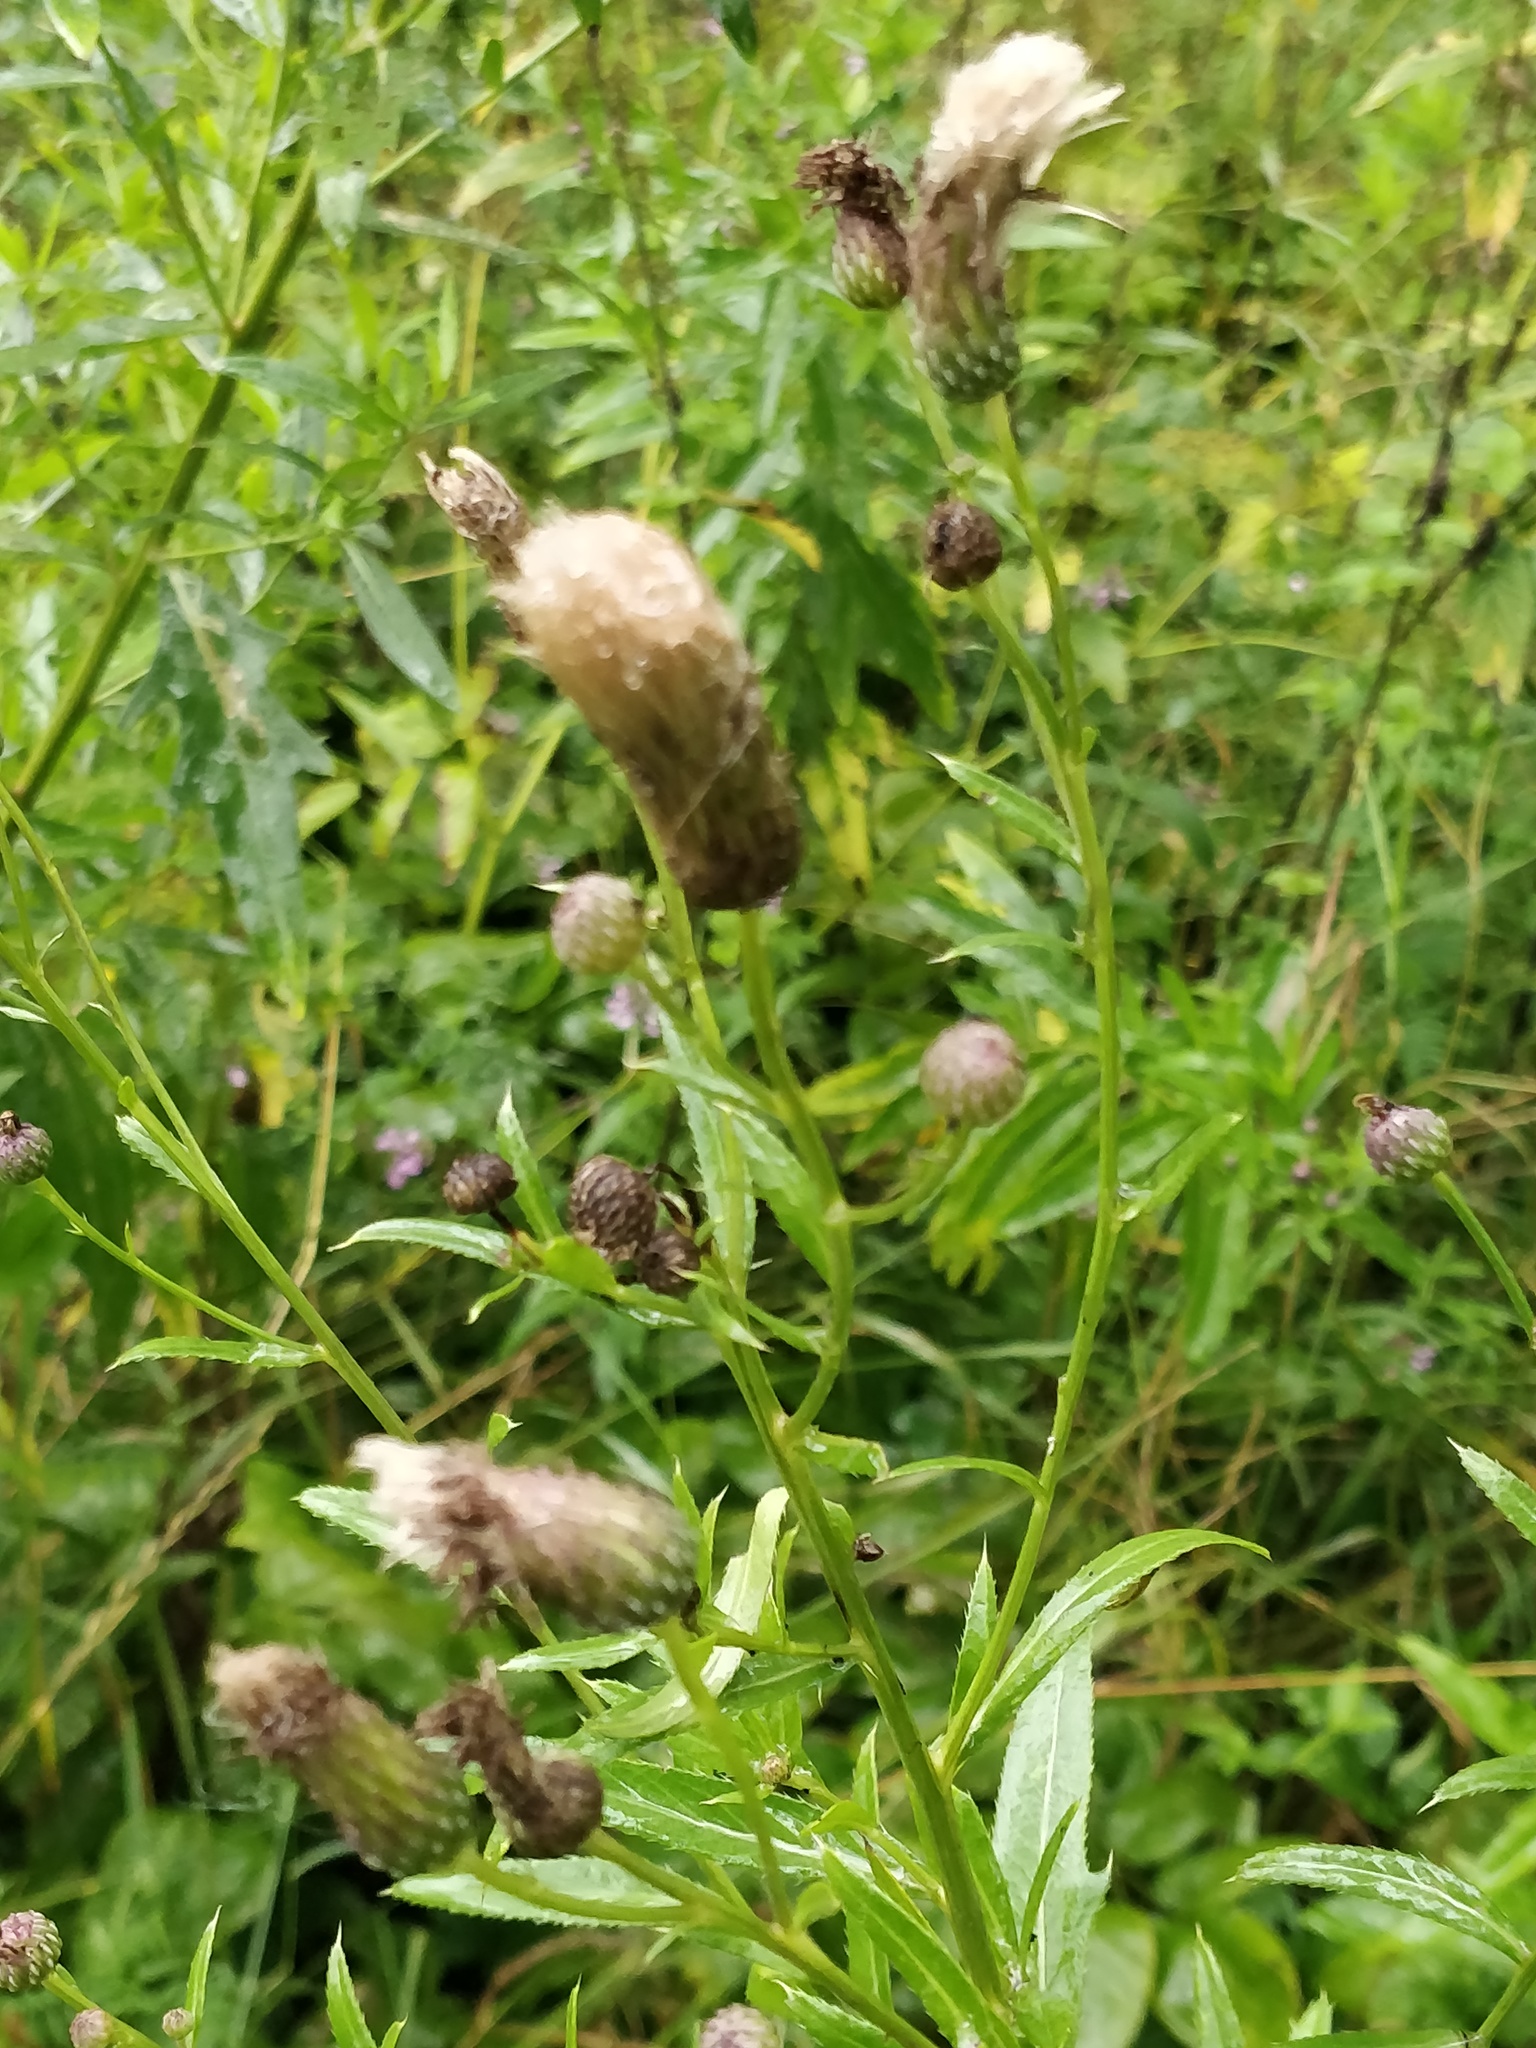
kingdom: Plantae
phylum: Tracheophyta
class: Magnoliopsida
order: Asterales
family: Asteraceae
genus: Cirsium
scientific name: Cirsium arvense
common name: Creeping thistle
